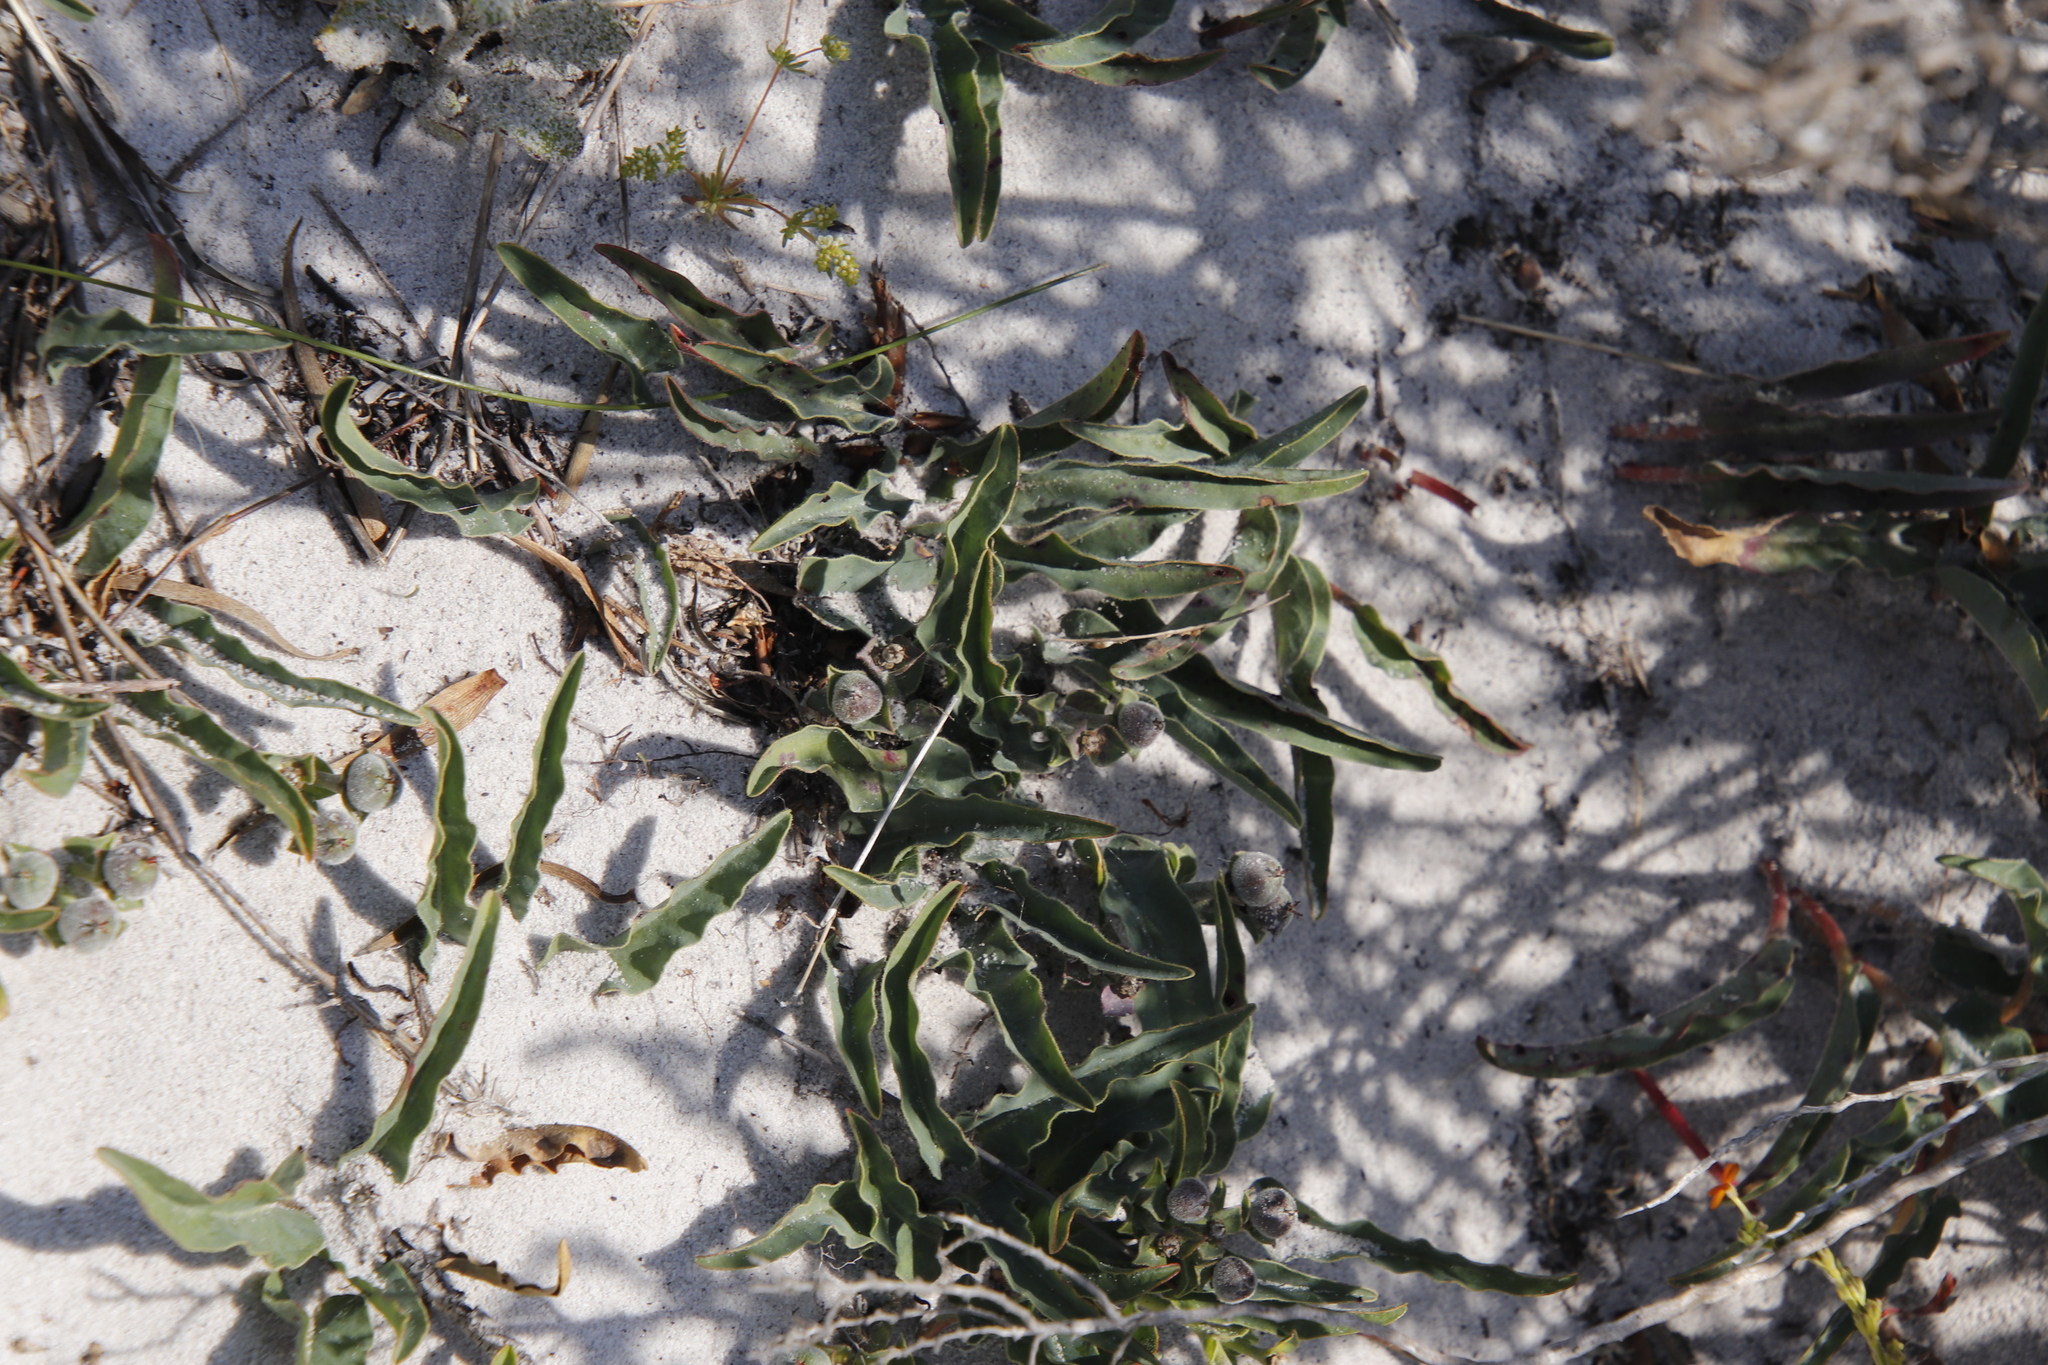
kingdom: Plantae
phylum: Tracheophyta
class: Magnoliopsida
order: Malpighiales
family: Euphorbiaceae
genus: Euphorbia
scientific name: Euphorbia tuberosa
